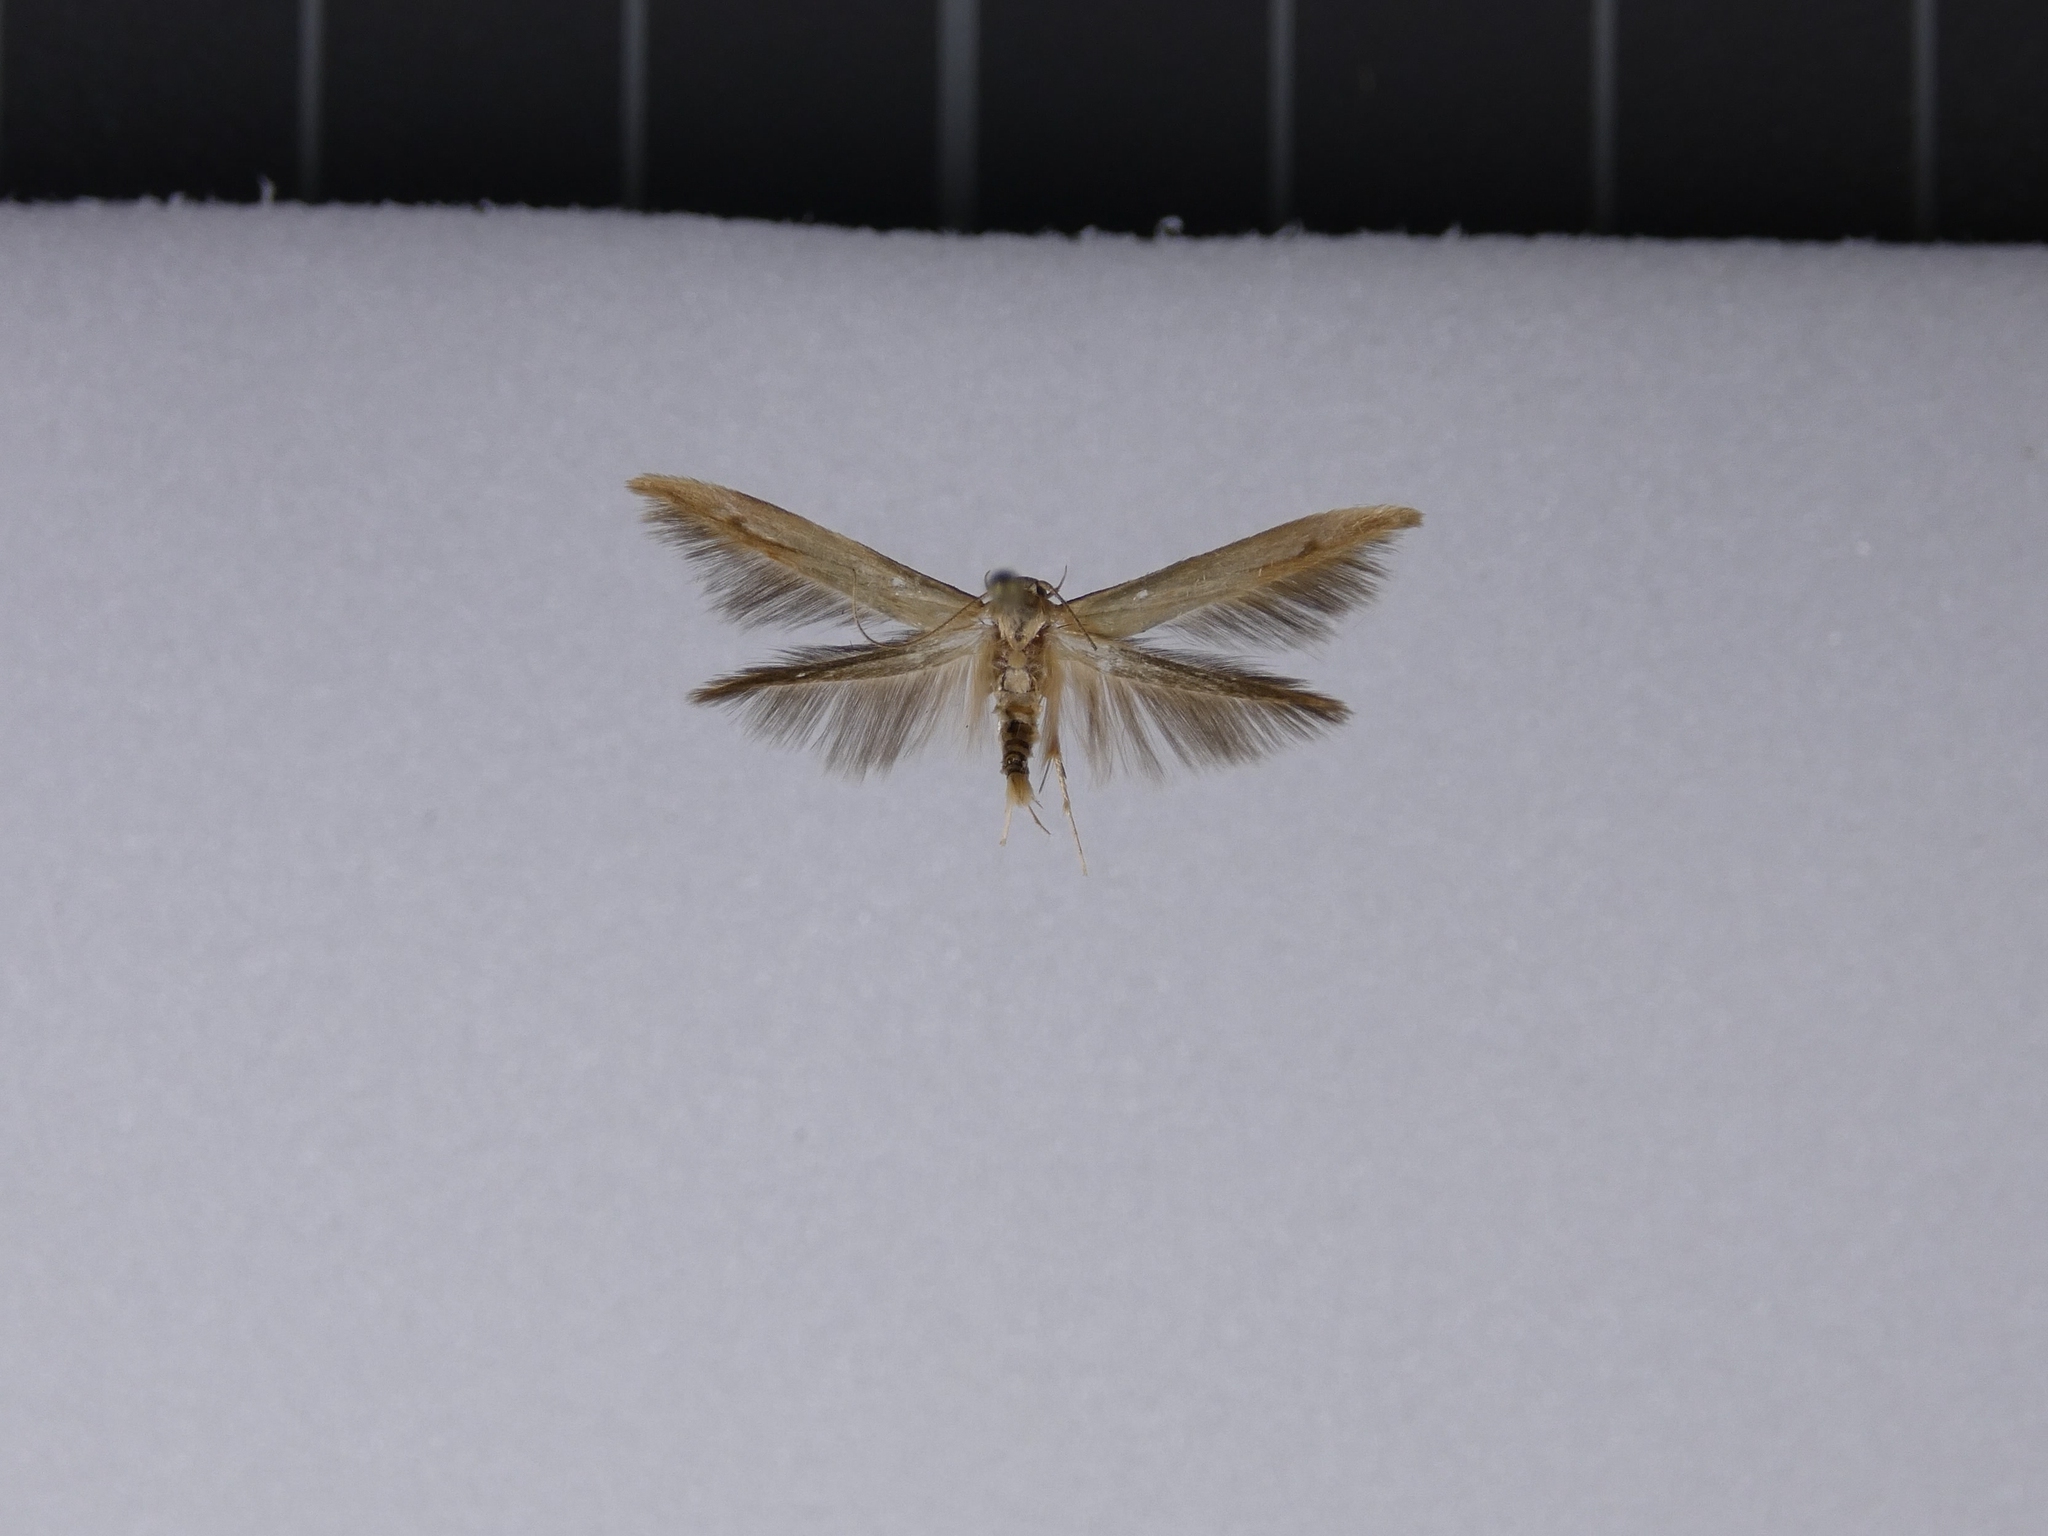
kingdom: Animalia
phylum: Arthropoda
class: Insecta
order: Lepidoptera
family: Stathmopodidae
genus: Stathmopoda
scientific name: Stathmopoda aposema
